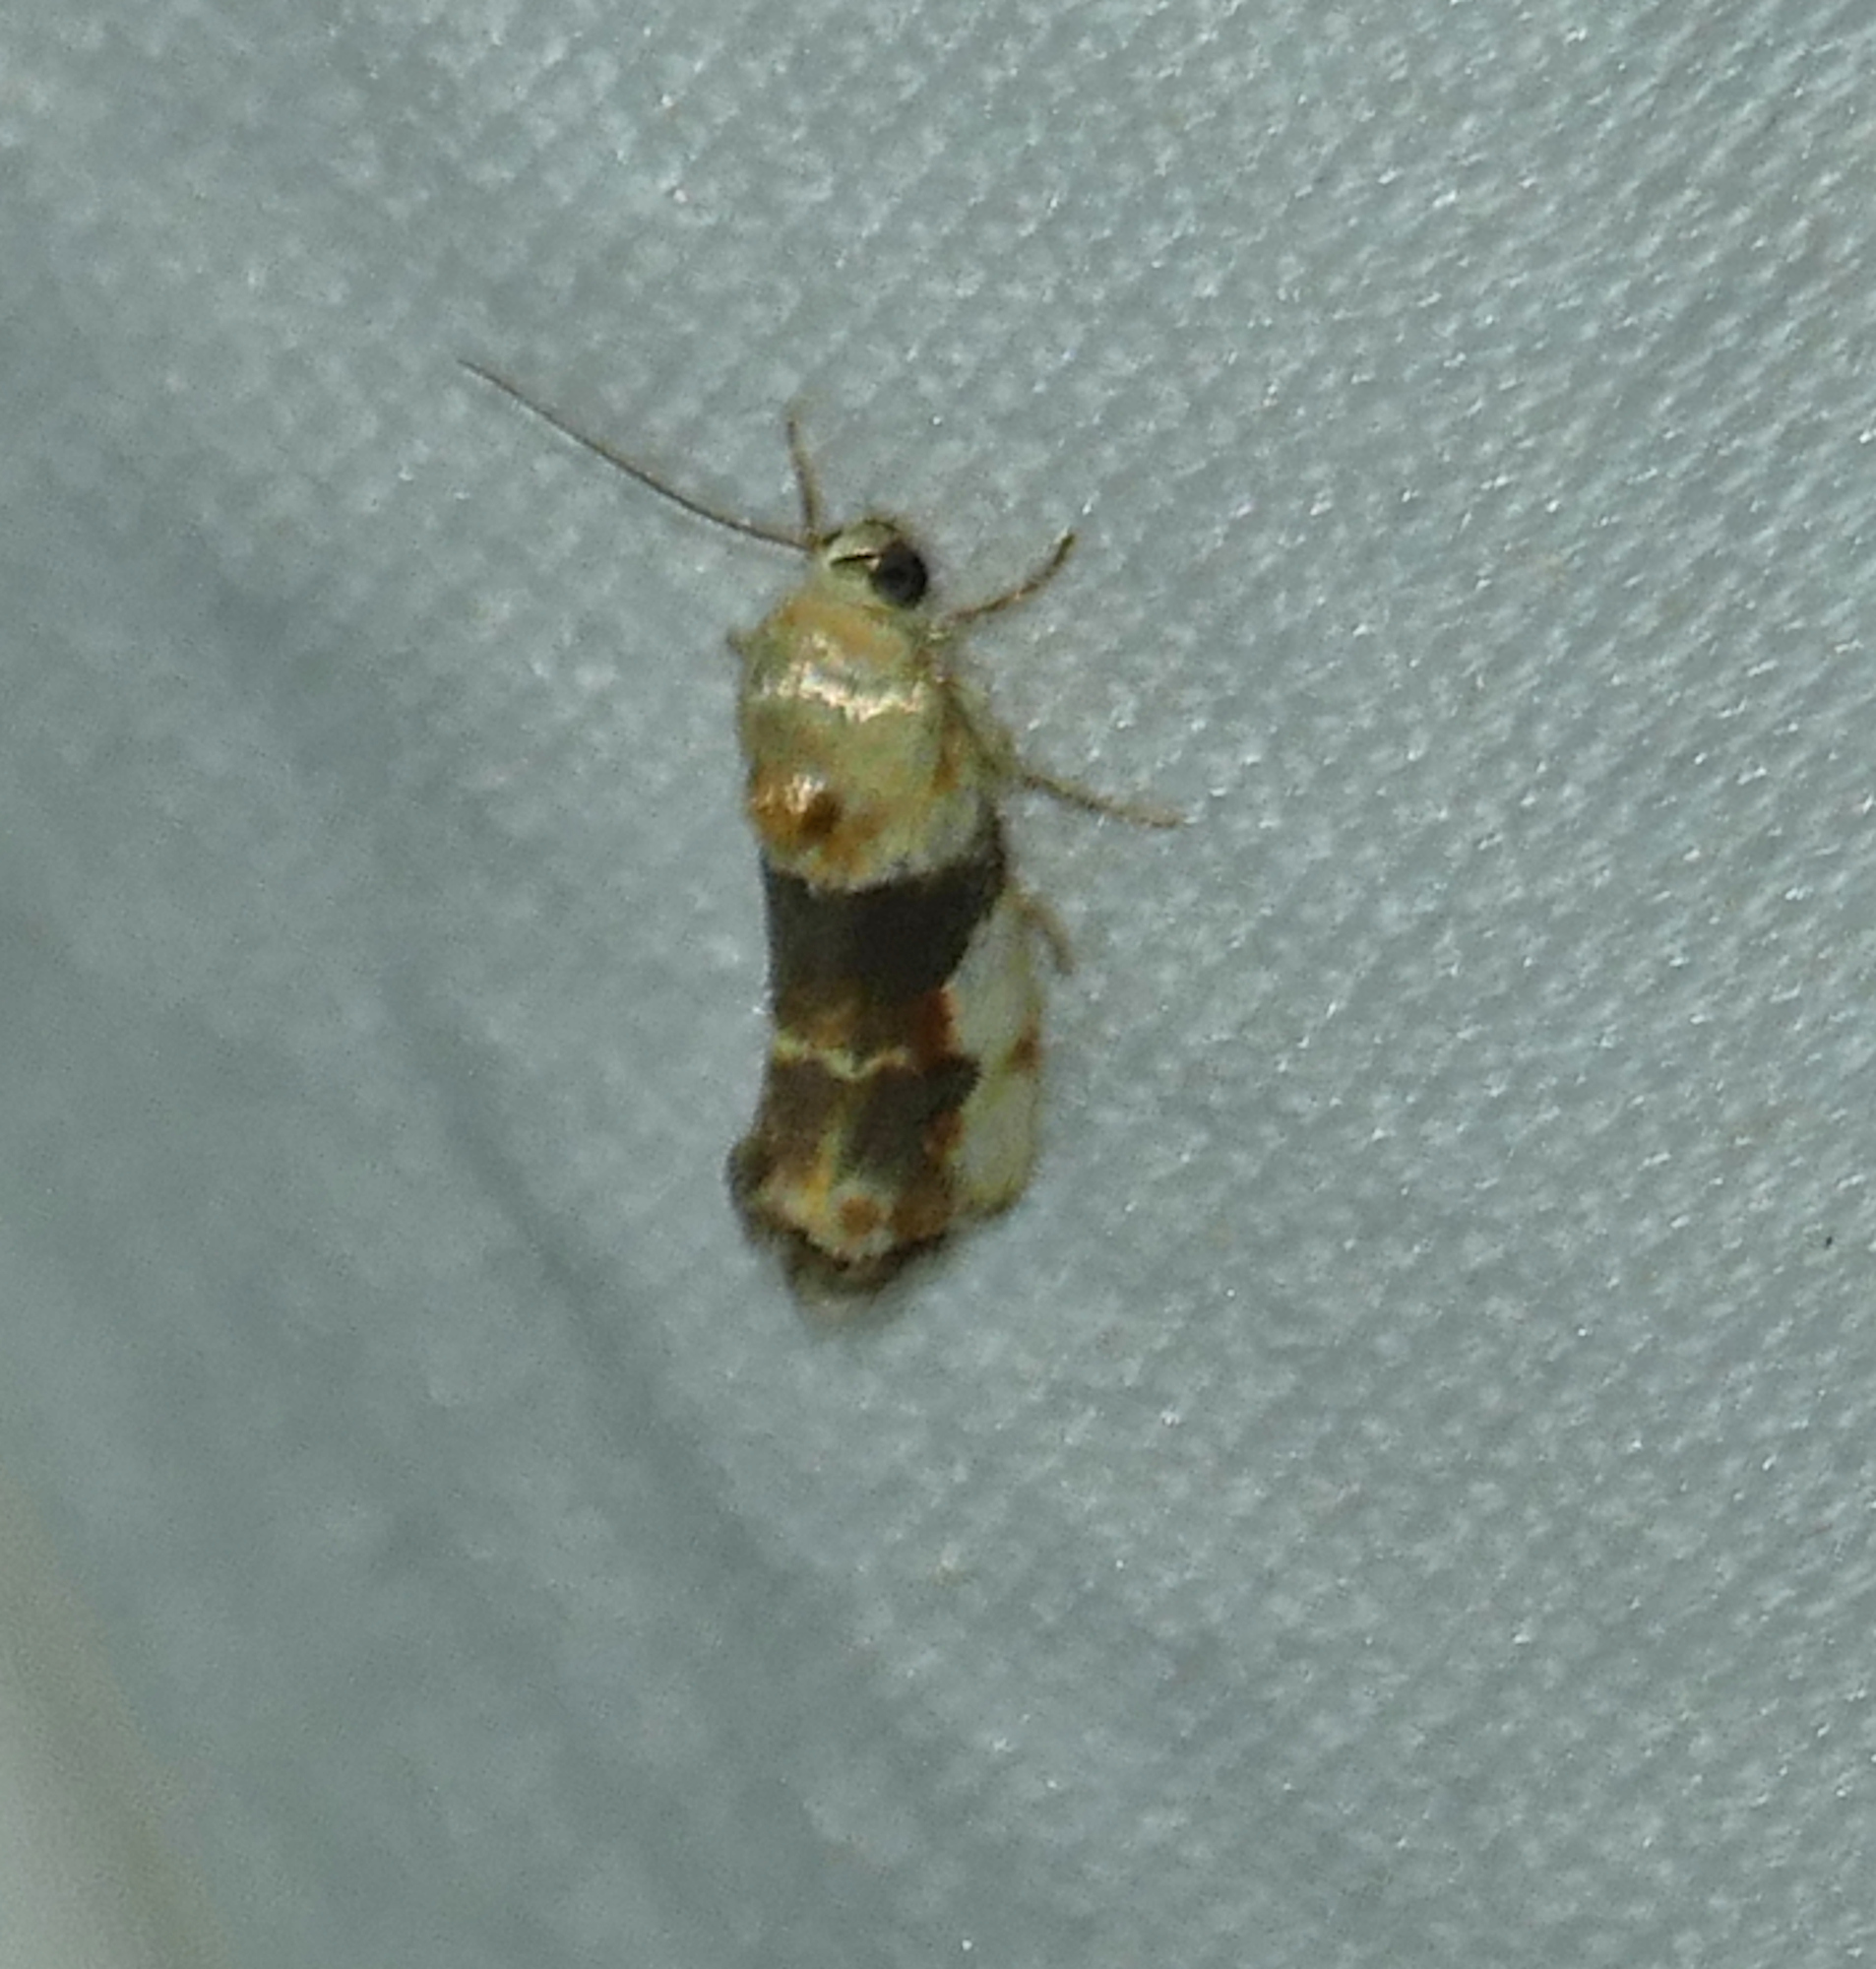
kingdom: Animalia
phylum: Arthropoda
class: Insecta
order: Lepidoptera
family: Noctuidae
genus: Acontia
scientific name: Acontia obatra
